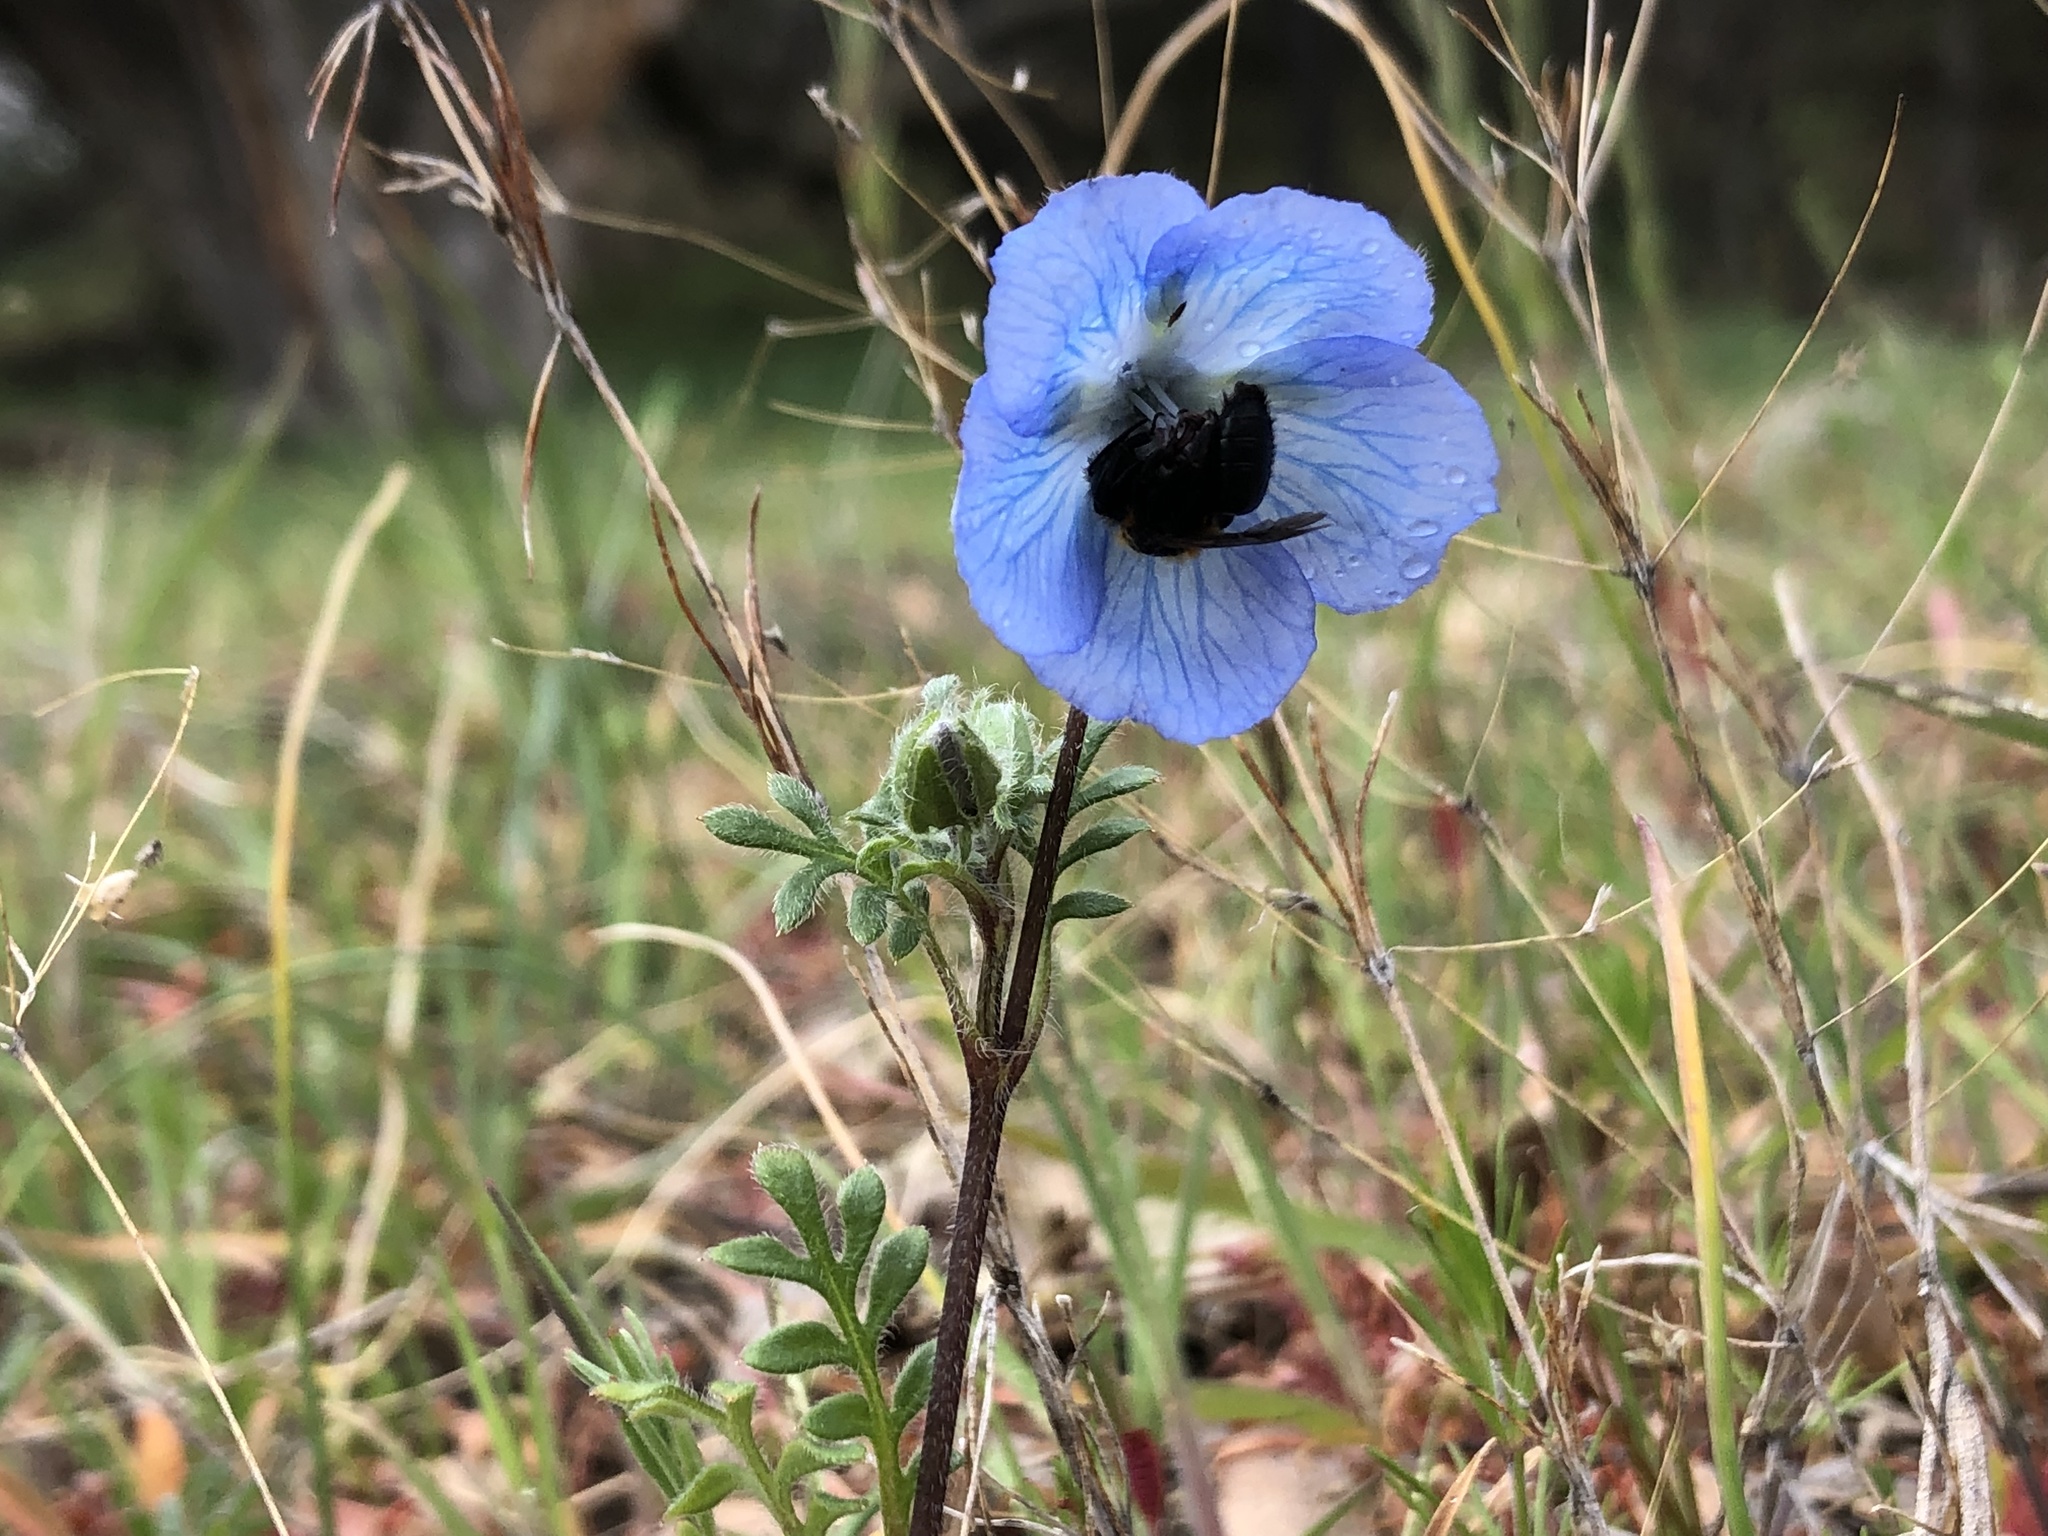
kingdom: Animalia
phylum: Arthropoda
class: Insecta
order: Hymenoptera
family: Andrenidae
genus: Andrena
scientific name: Andrena nigripes
